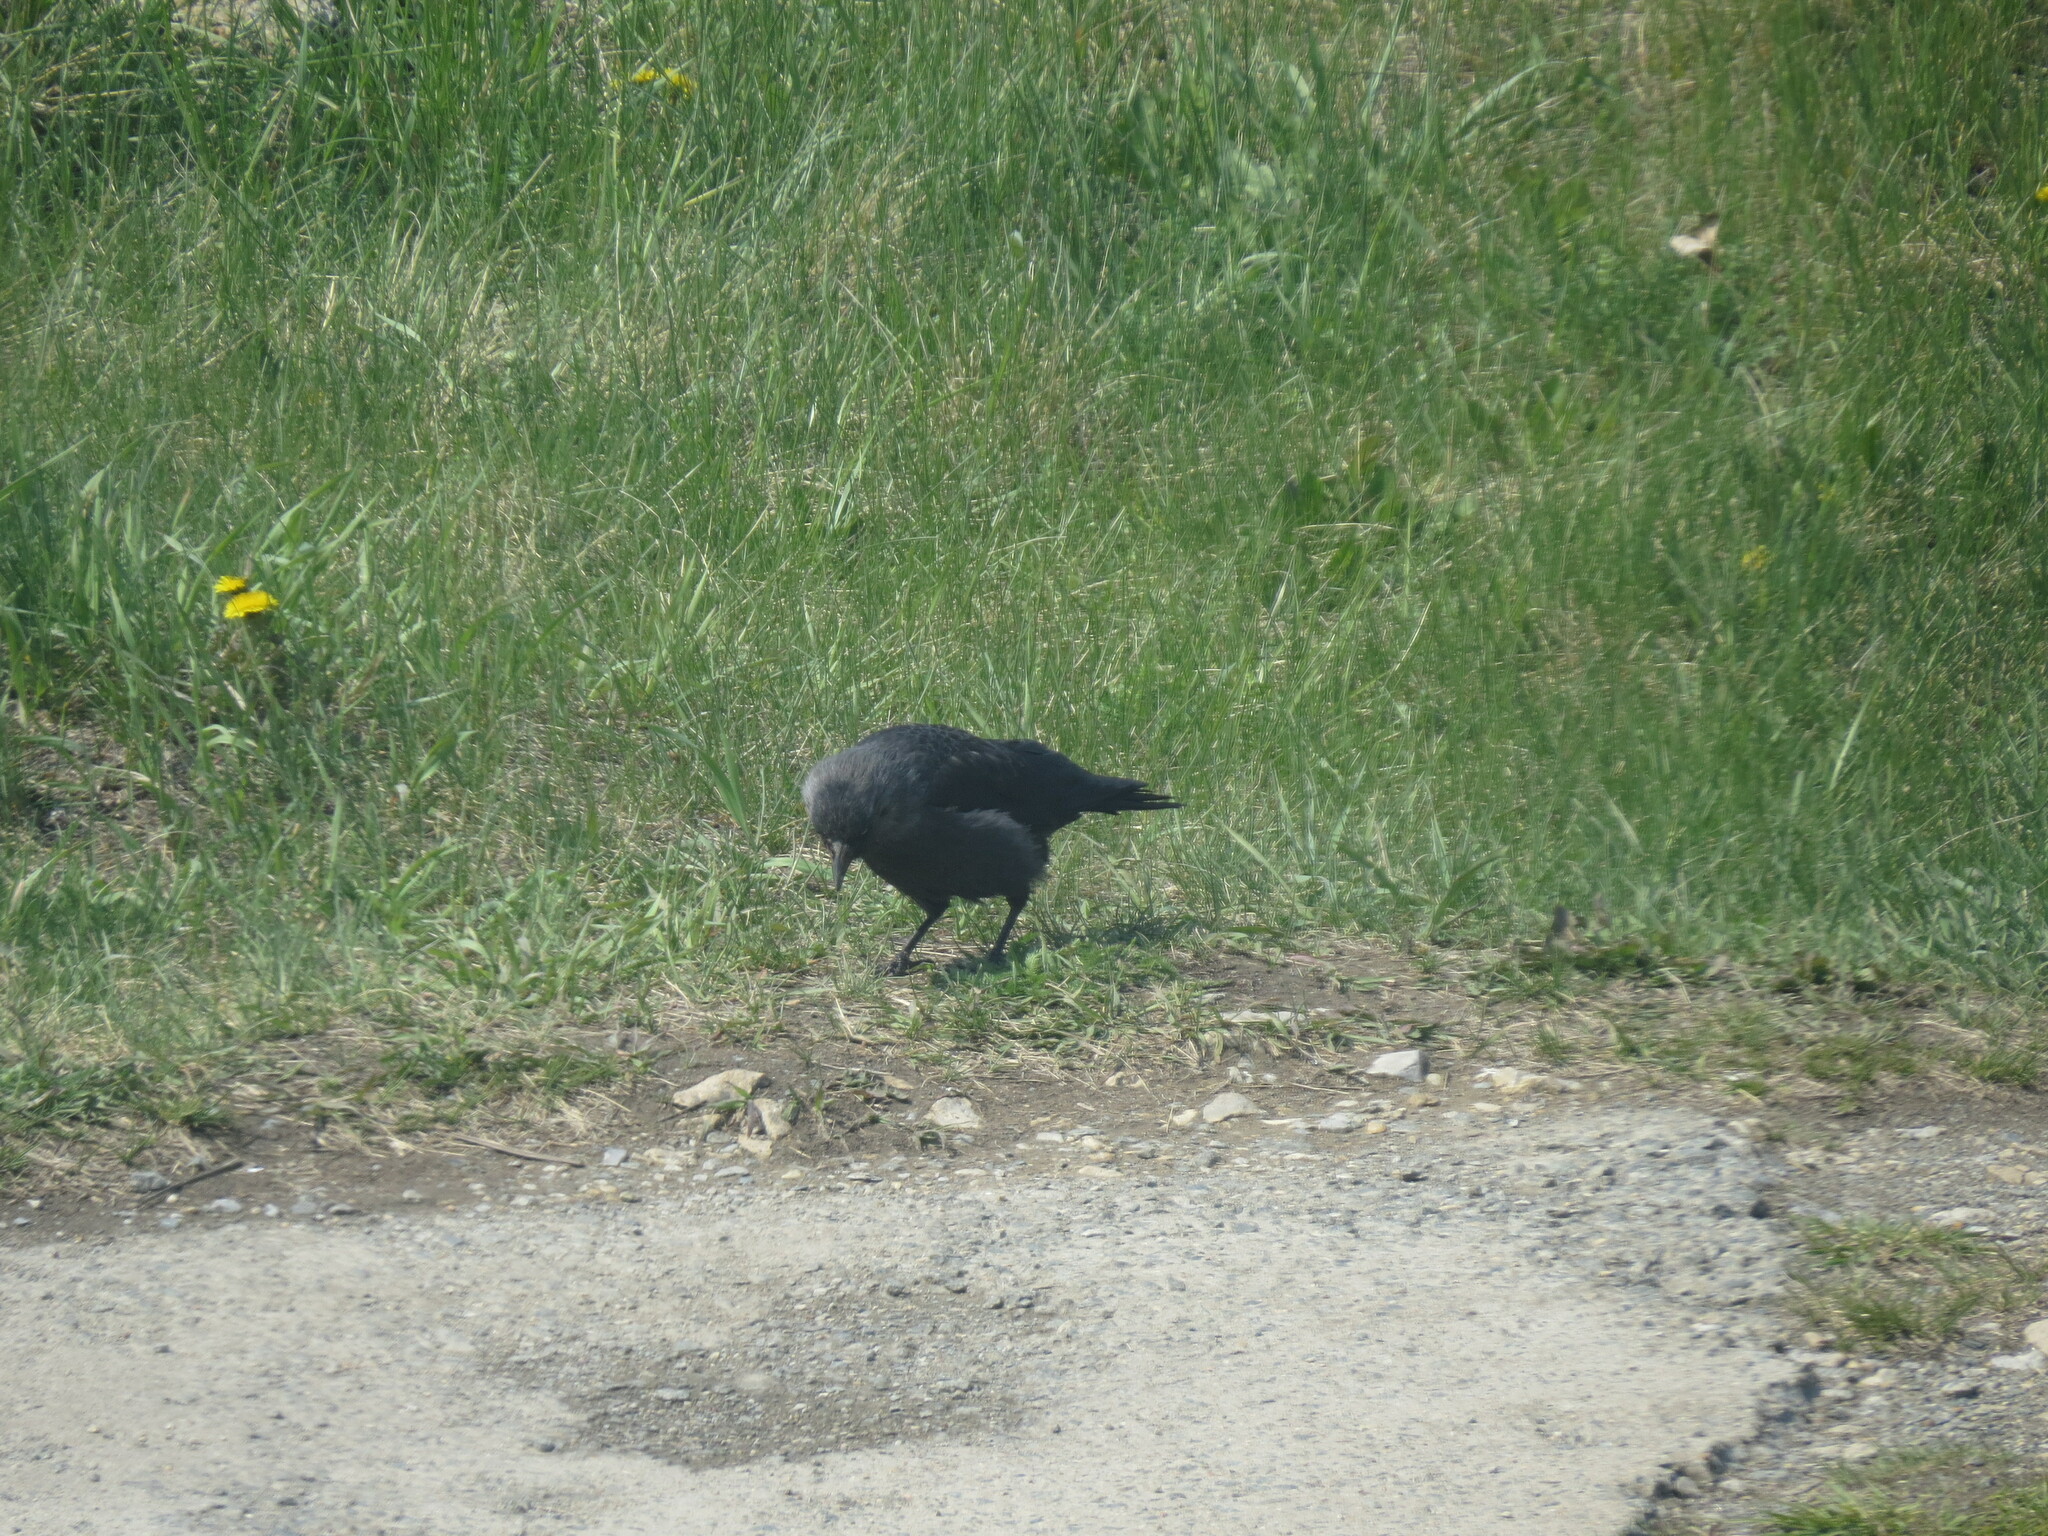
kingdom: Animalia
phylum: Chordata
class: Aves
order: Passeriformes
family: Corvidae
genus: Coloeus
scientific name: Coloeus monedula
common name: Western jackdaw
